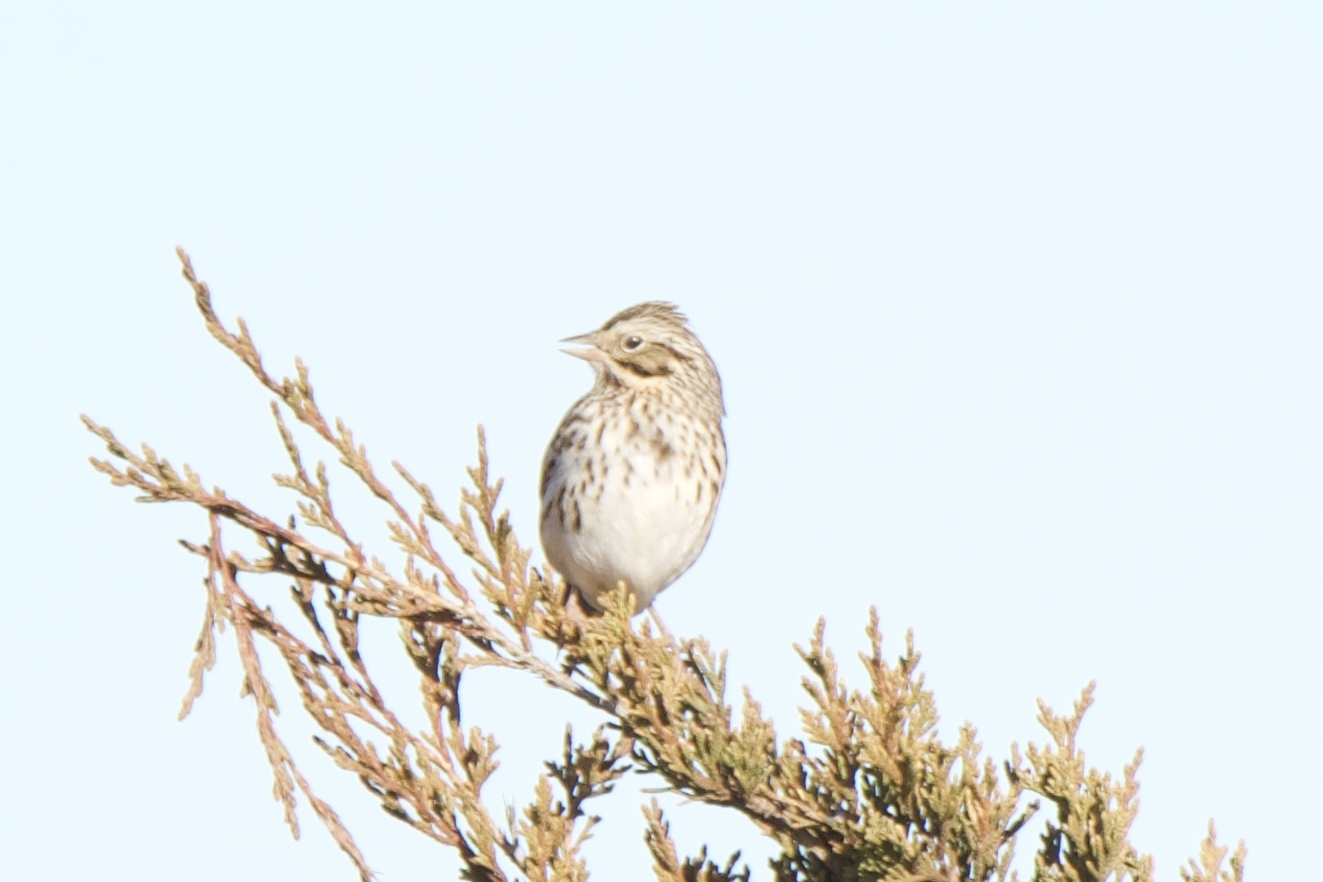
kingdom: Animalia
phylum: Chordata
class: Aves
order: Passeriformes
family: Passerellidae
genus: Passerculus
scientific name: Passerculus sandwichensis
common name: Savannah sparrow
